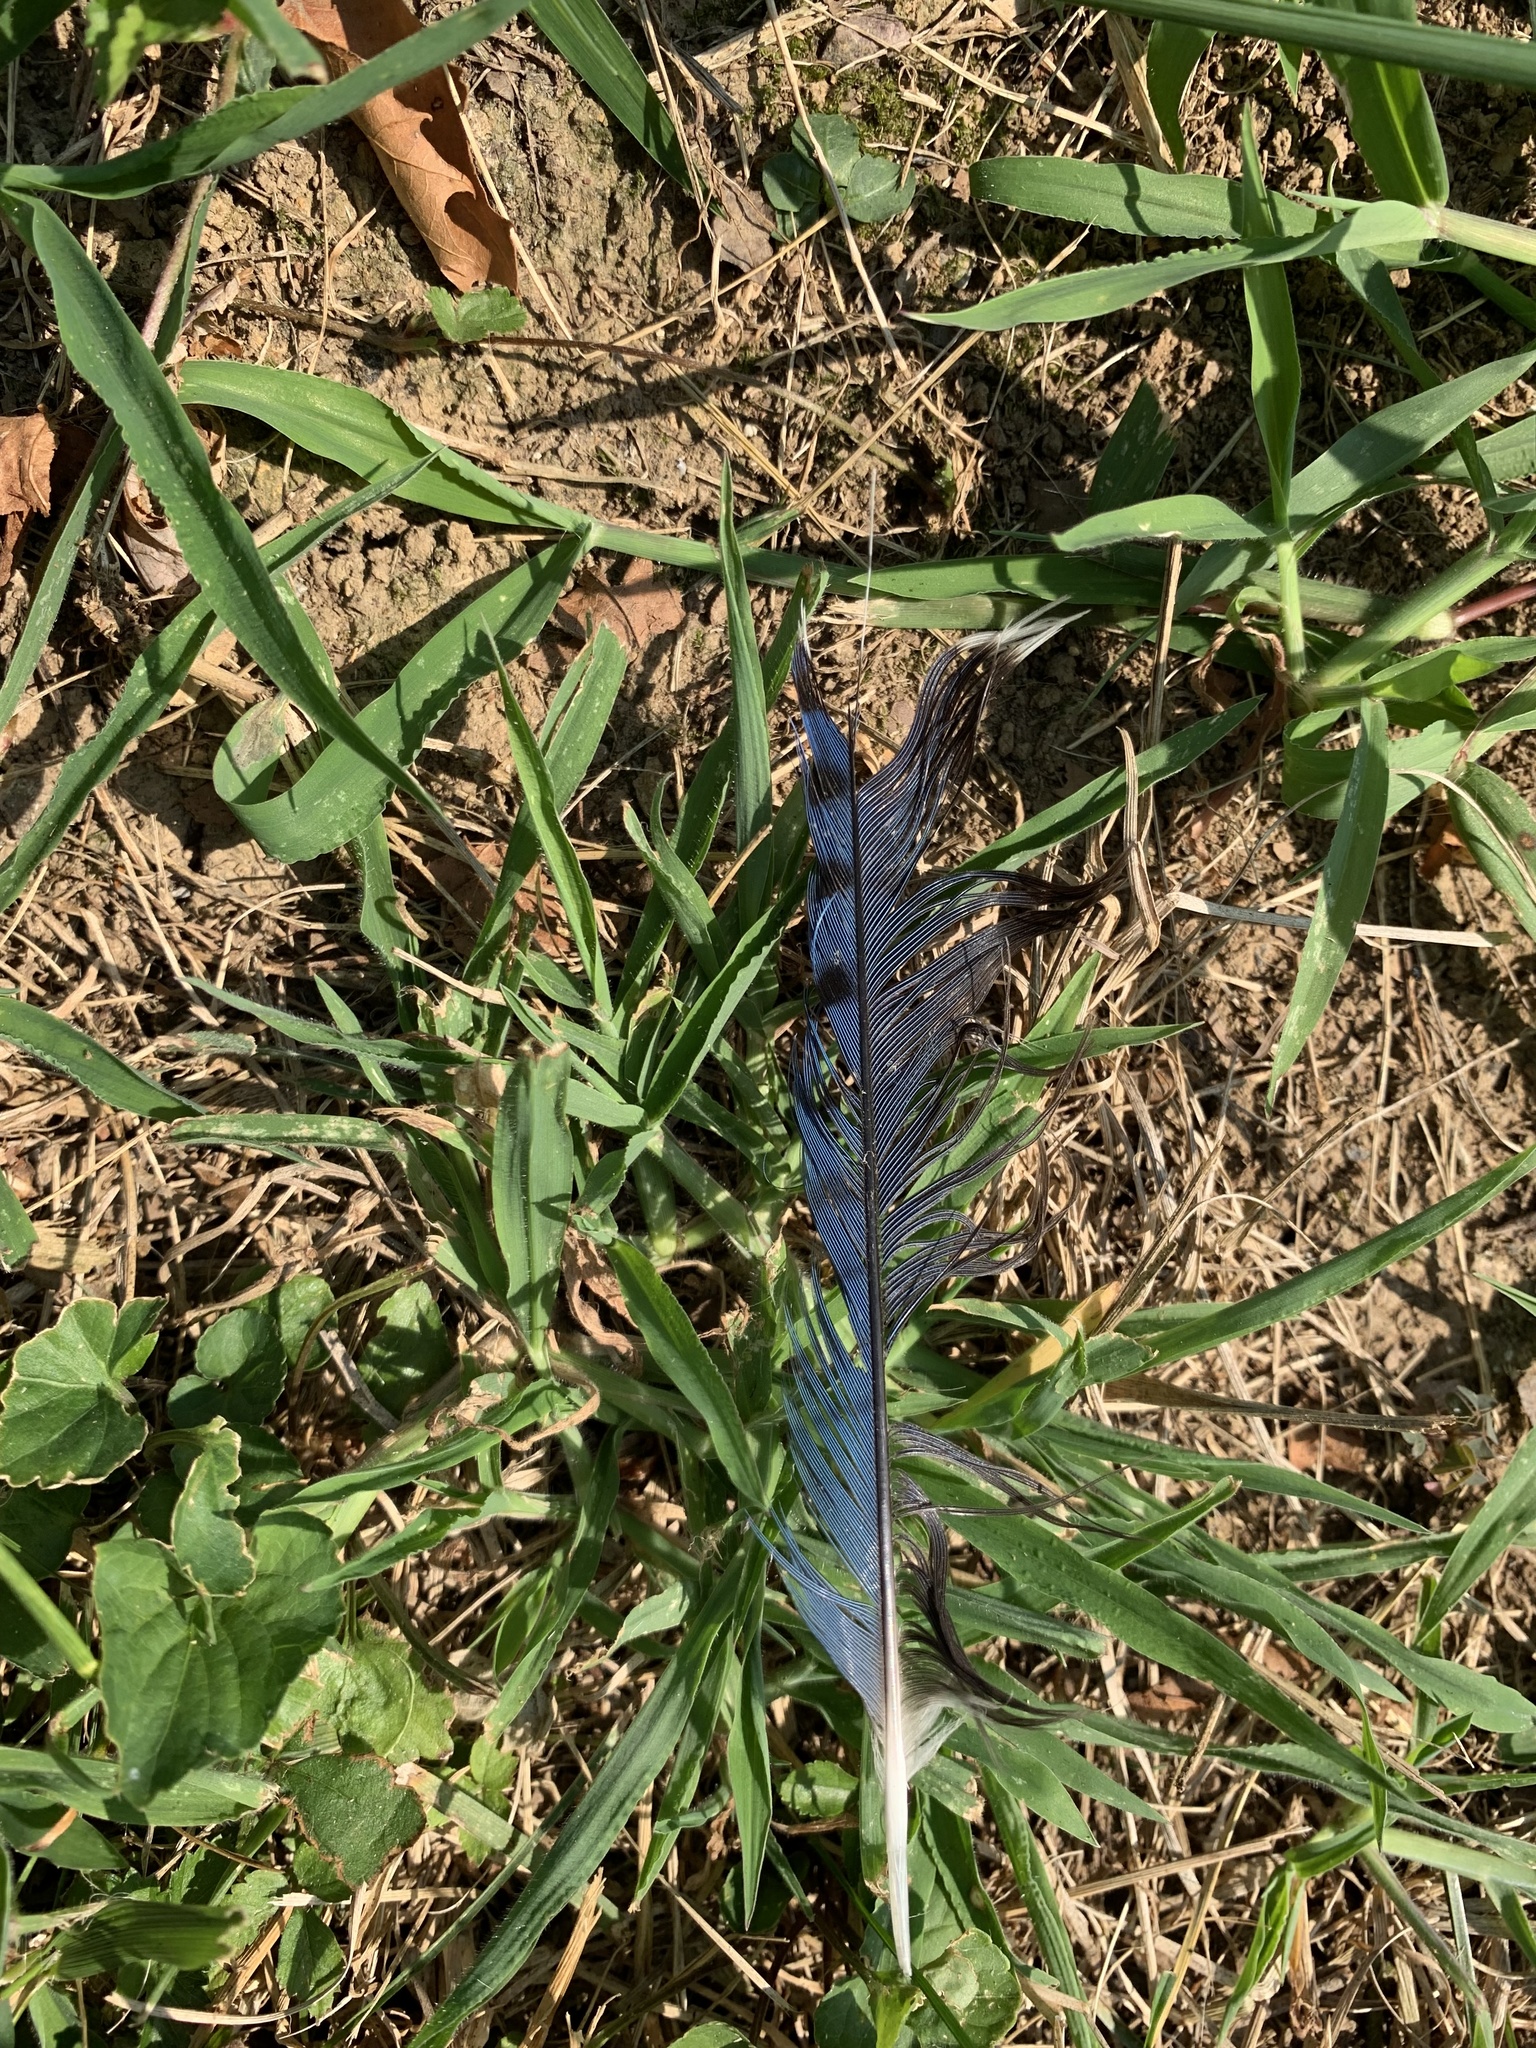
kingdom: Animalia
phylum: Chordata
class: Aves
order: Passeriformes
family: Corvidae
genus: Cyanocitta
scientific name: Cyanocitta cristata
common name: Blue jay
